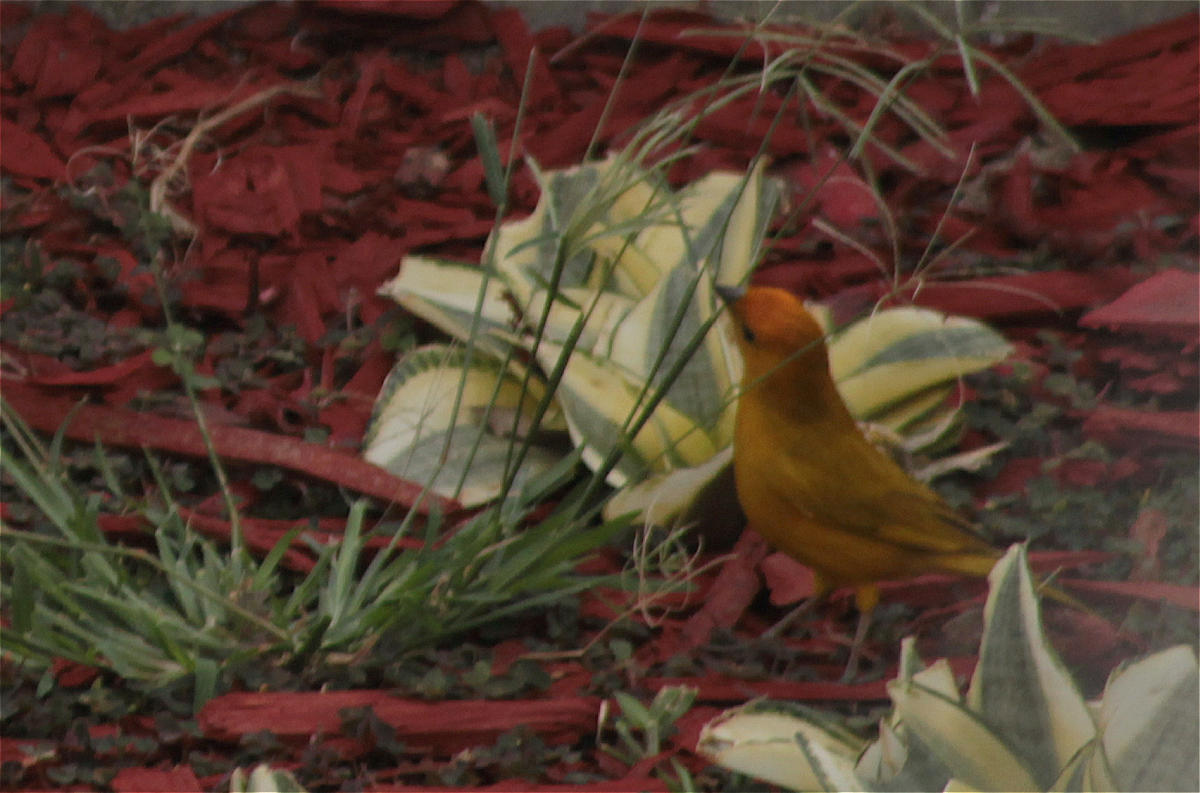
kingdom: Animalia
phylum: Chordata
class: Aves
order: Passeriformes
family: Thraupidae
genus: Sicalis
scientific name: Sicalis flaveola
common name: Saffron finch
